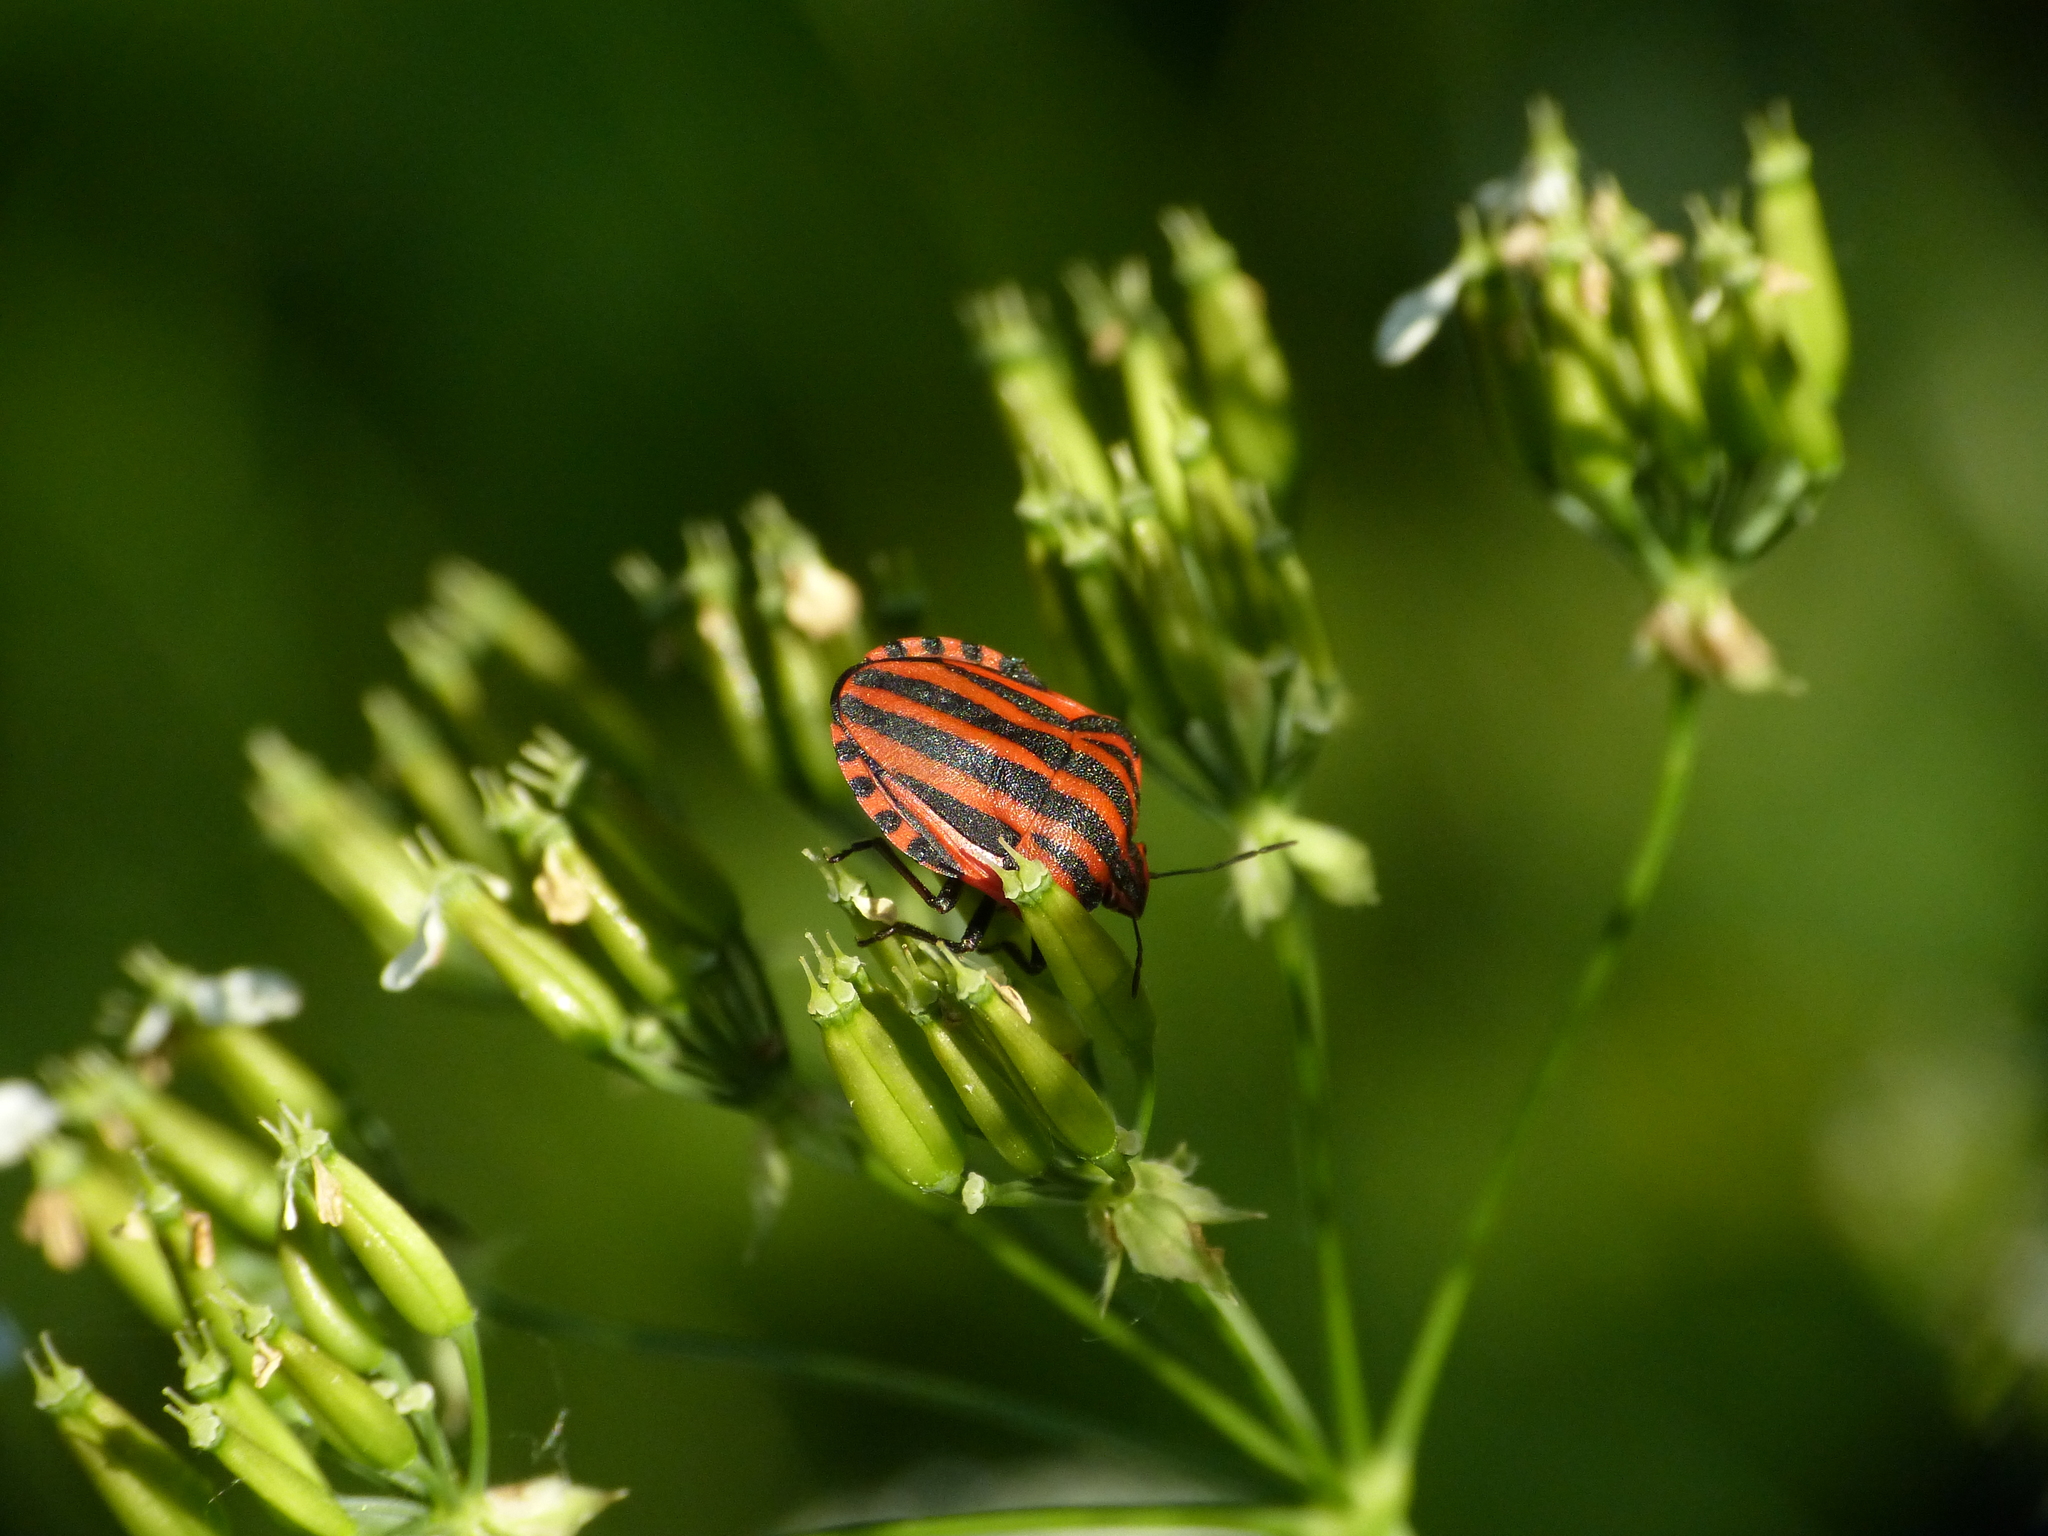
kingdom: Animalia
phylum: Arthropoda
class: Insecta
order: Hemiptera
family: Pentatomidae
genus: Graphosoma
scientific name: Graphosoma italicum
